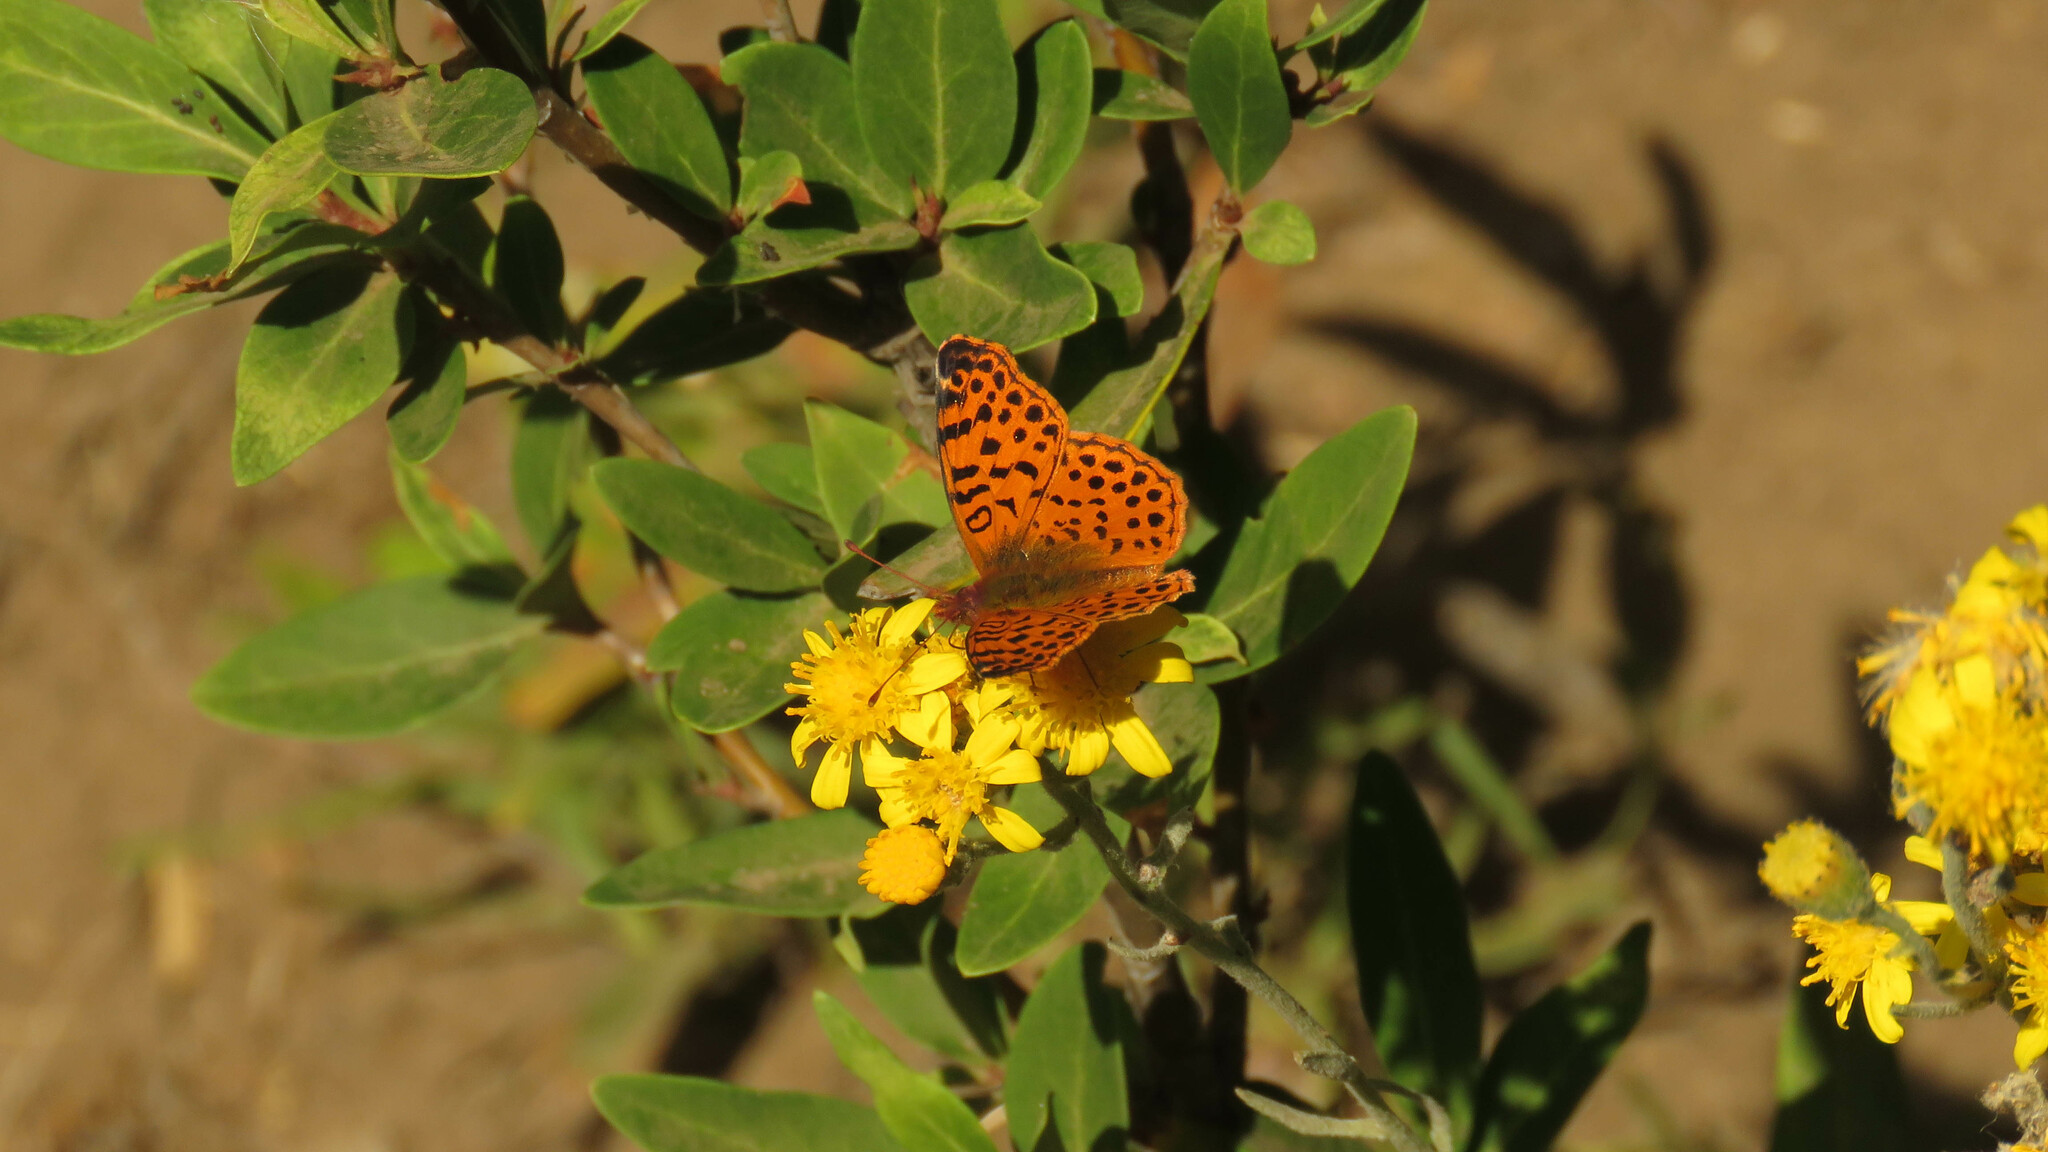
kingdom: Animalia
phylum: Arthropoda
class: Insecta
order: Lepidoptera
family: Nymphalidae
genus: Issoria
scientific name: Issoria Yramea cytheris
